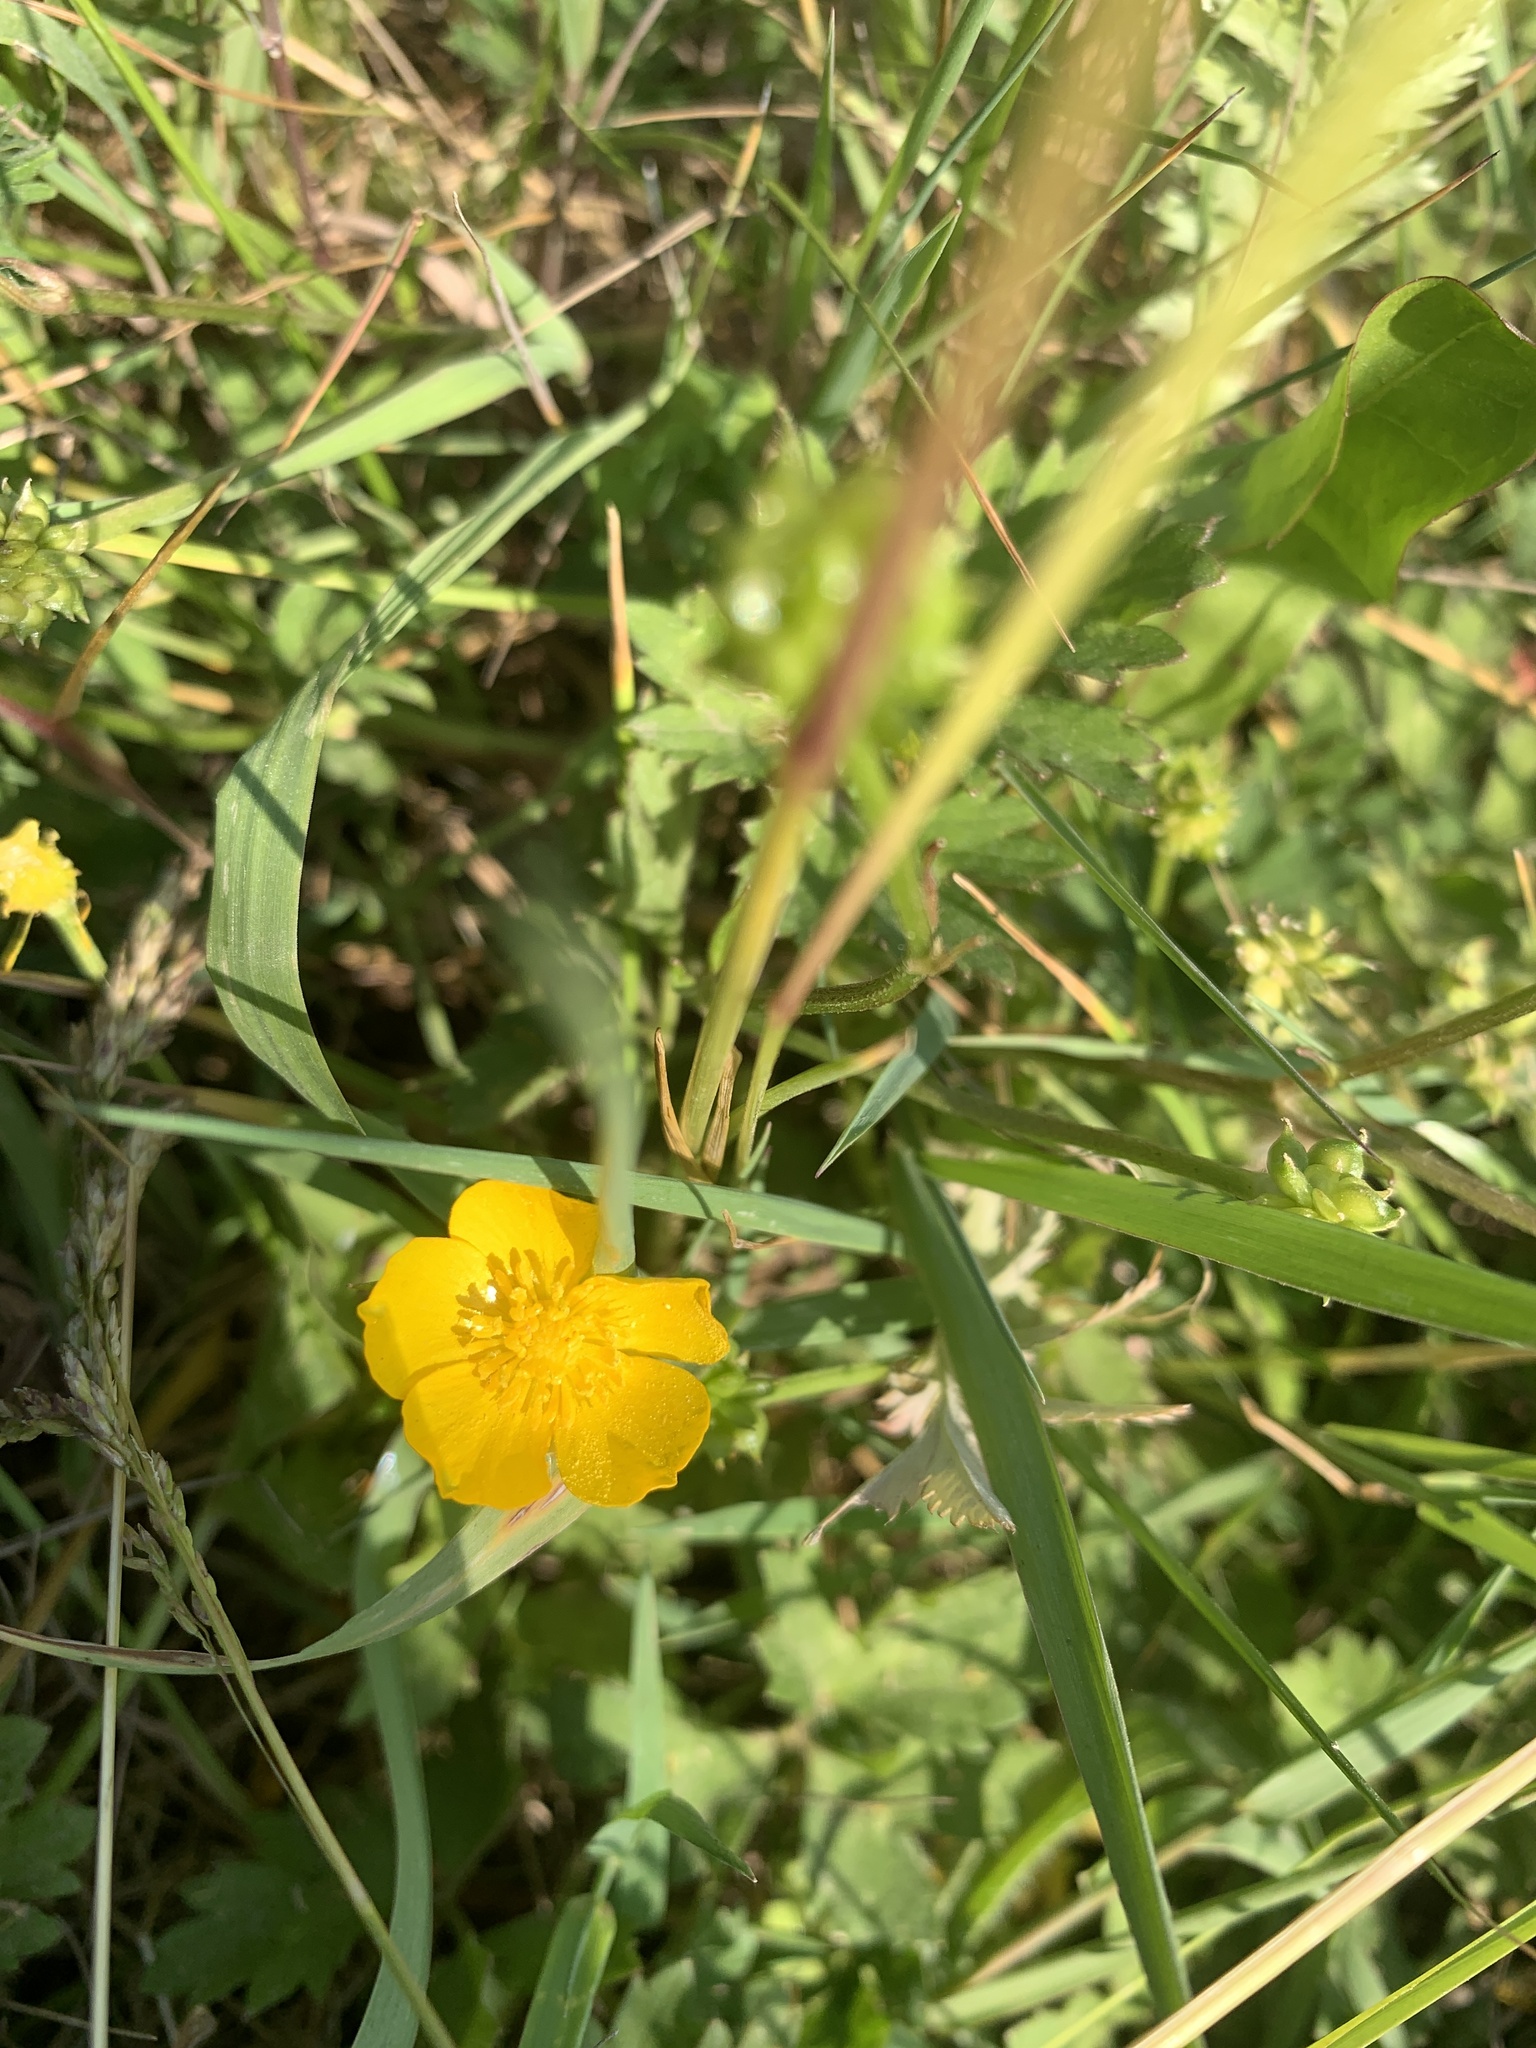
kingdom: Plantae
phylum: Tracheophyta
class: Magnoliopsida
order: Ranunculales
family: Ranunculaceae
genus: Ranunculus
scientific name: Ranunculus acris
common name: Meadow buttercup
